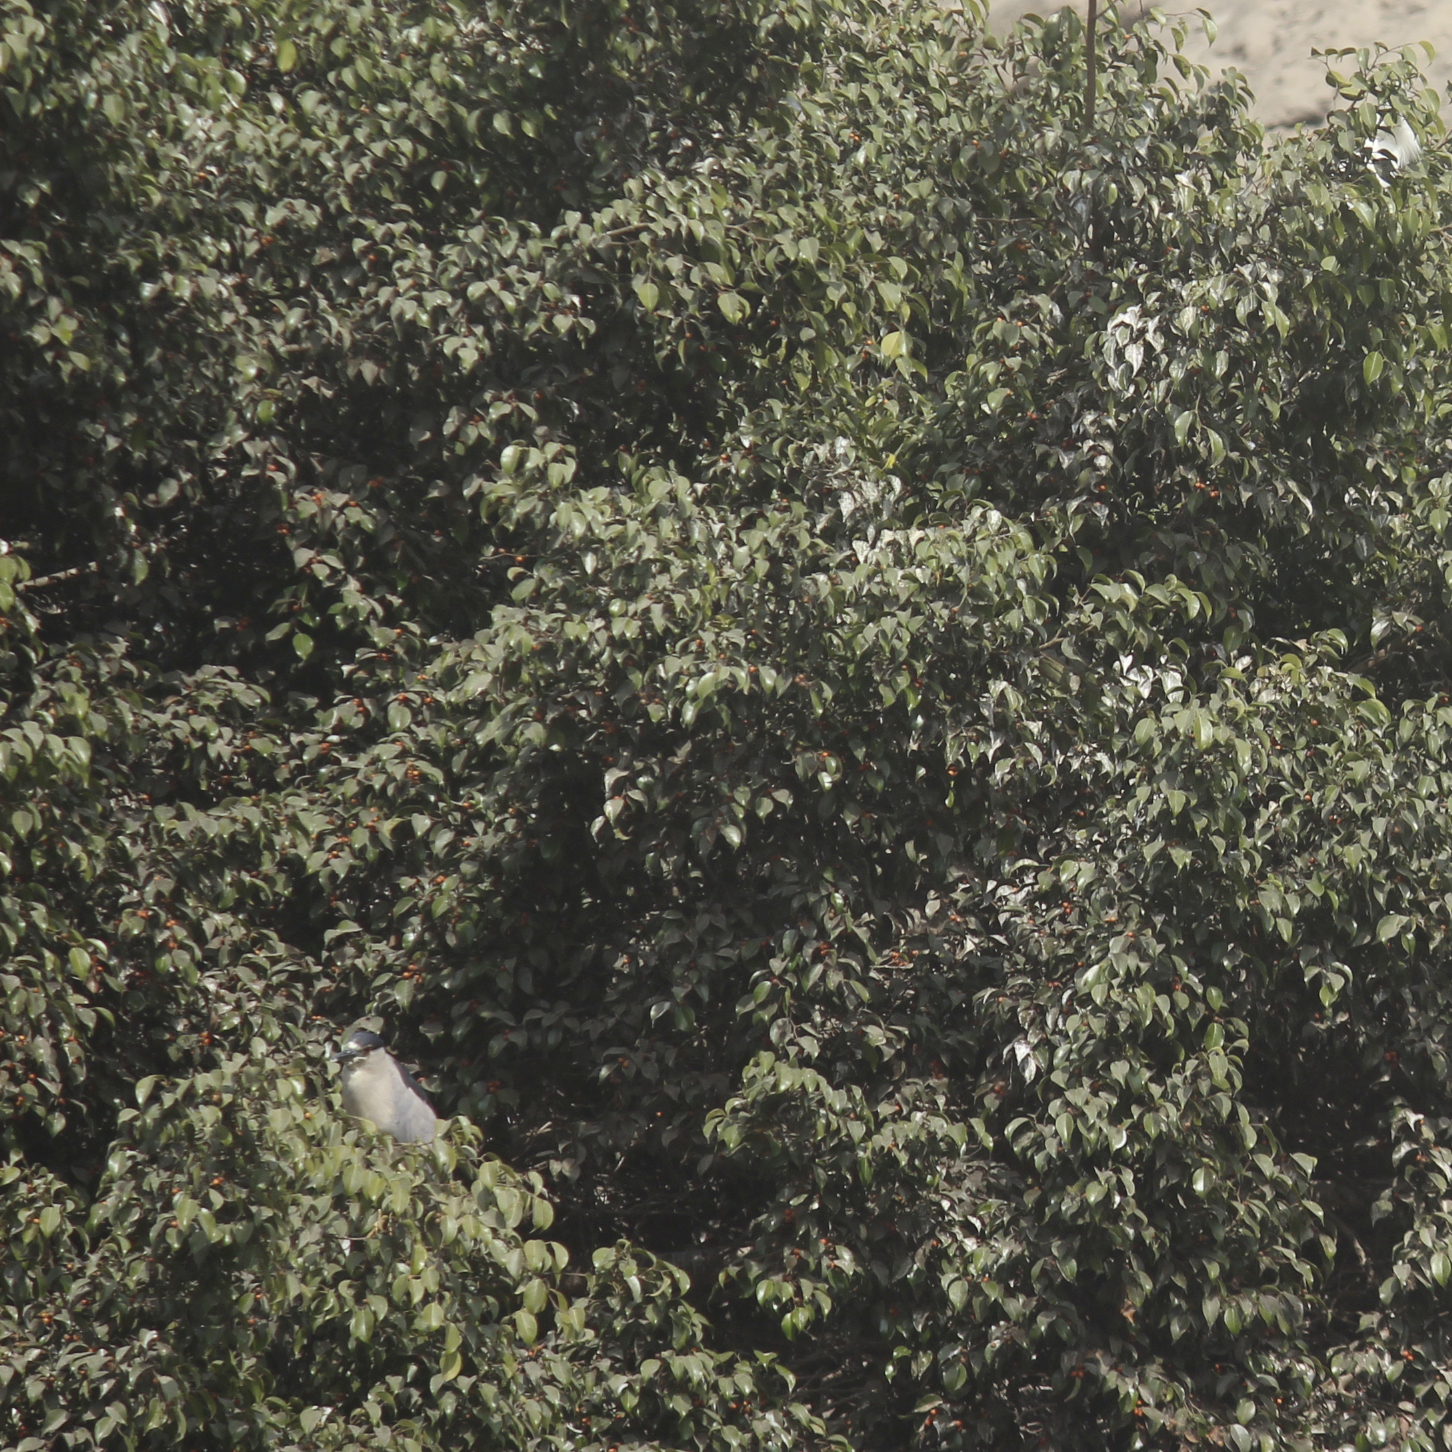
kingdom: Animalia
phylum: Chordata
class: Aves
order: Pelecaniformes
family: Ardeidae
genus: Nycticorax
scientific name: Nycticorax nycticorax
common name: Black-crowned night heron
